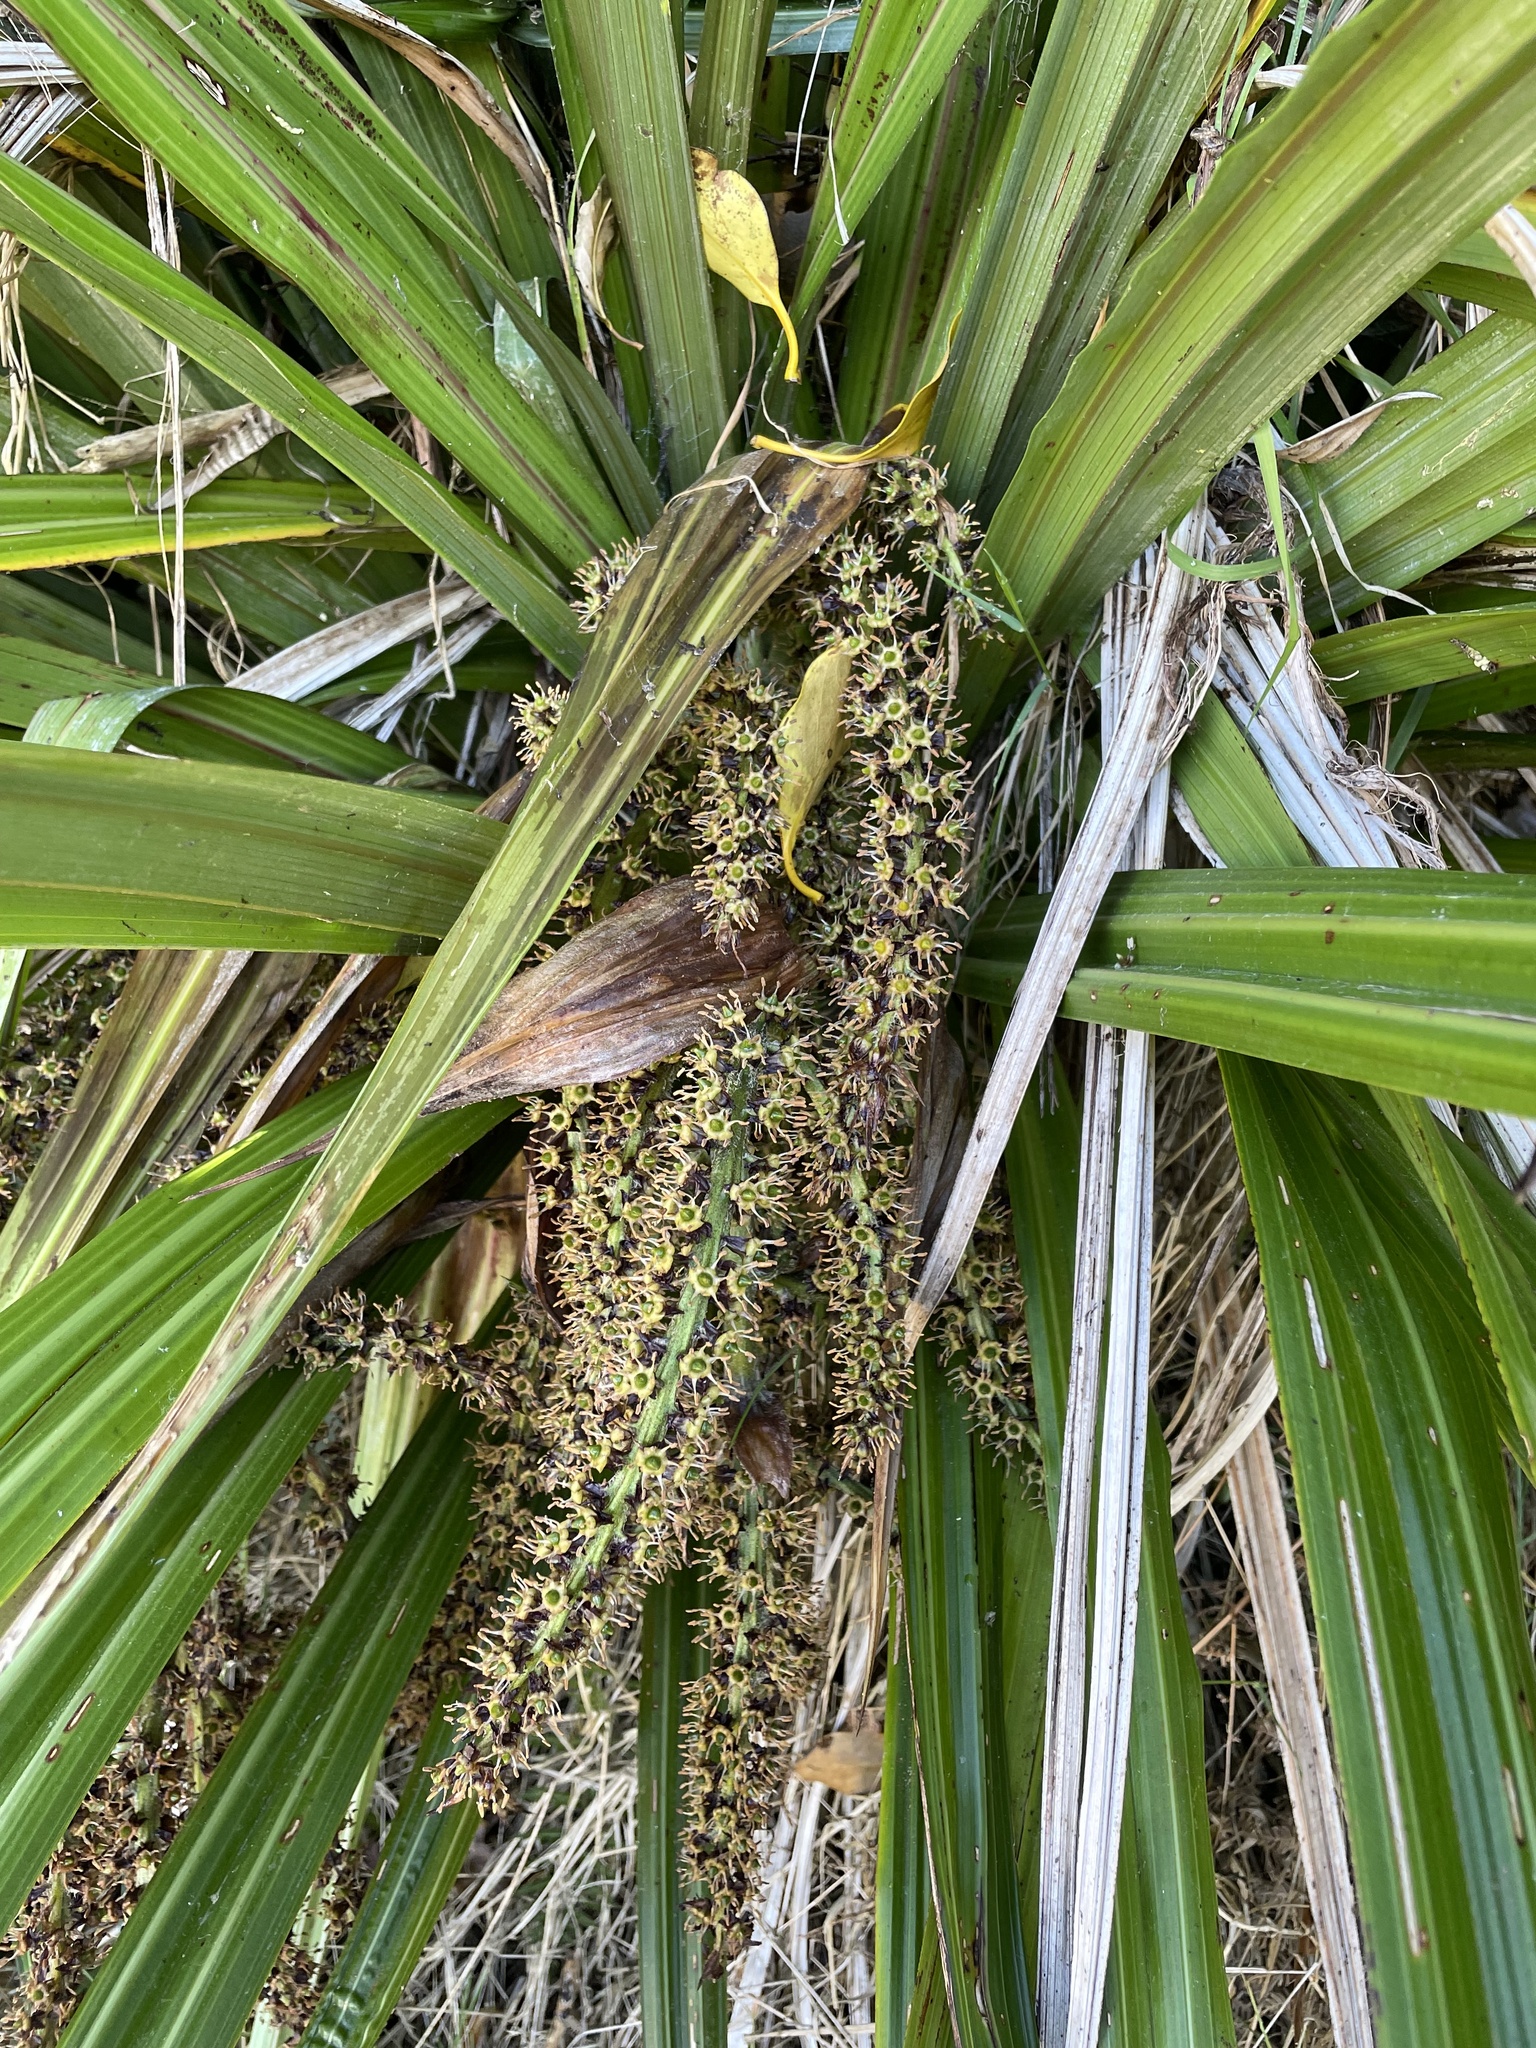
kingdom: Plantae
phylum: Tracheophyta
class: Liliopsida
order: Asparagales
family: Asteliaceae
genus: Astelia
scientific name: Astelia fragrans
